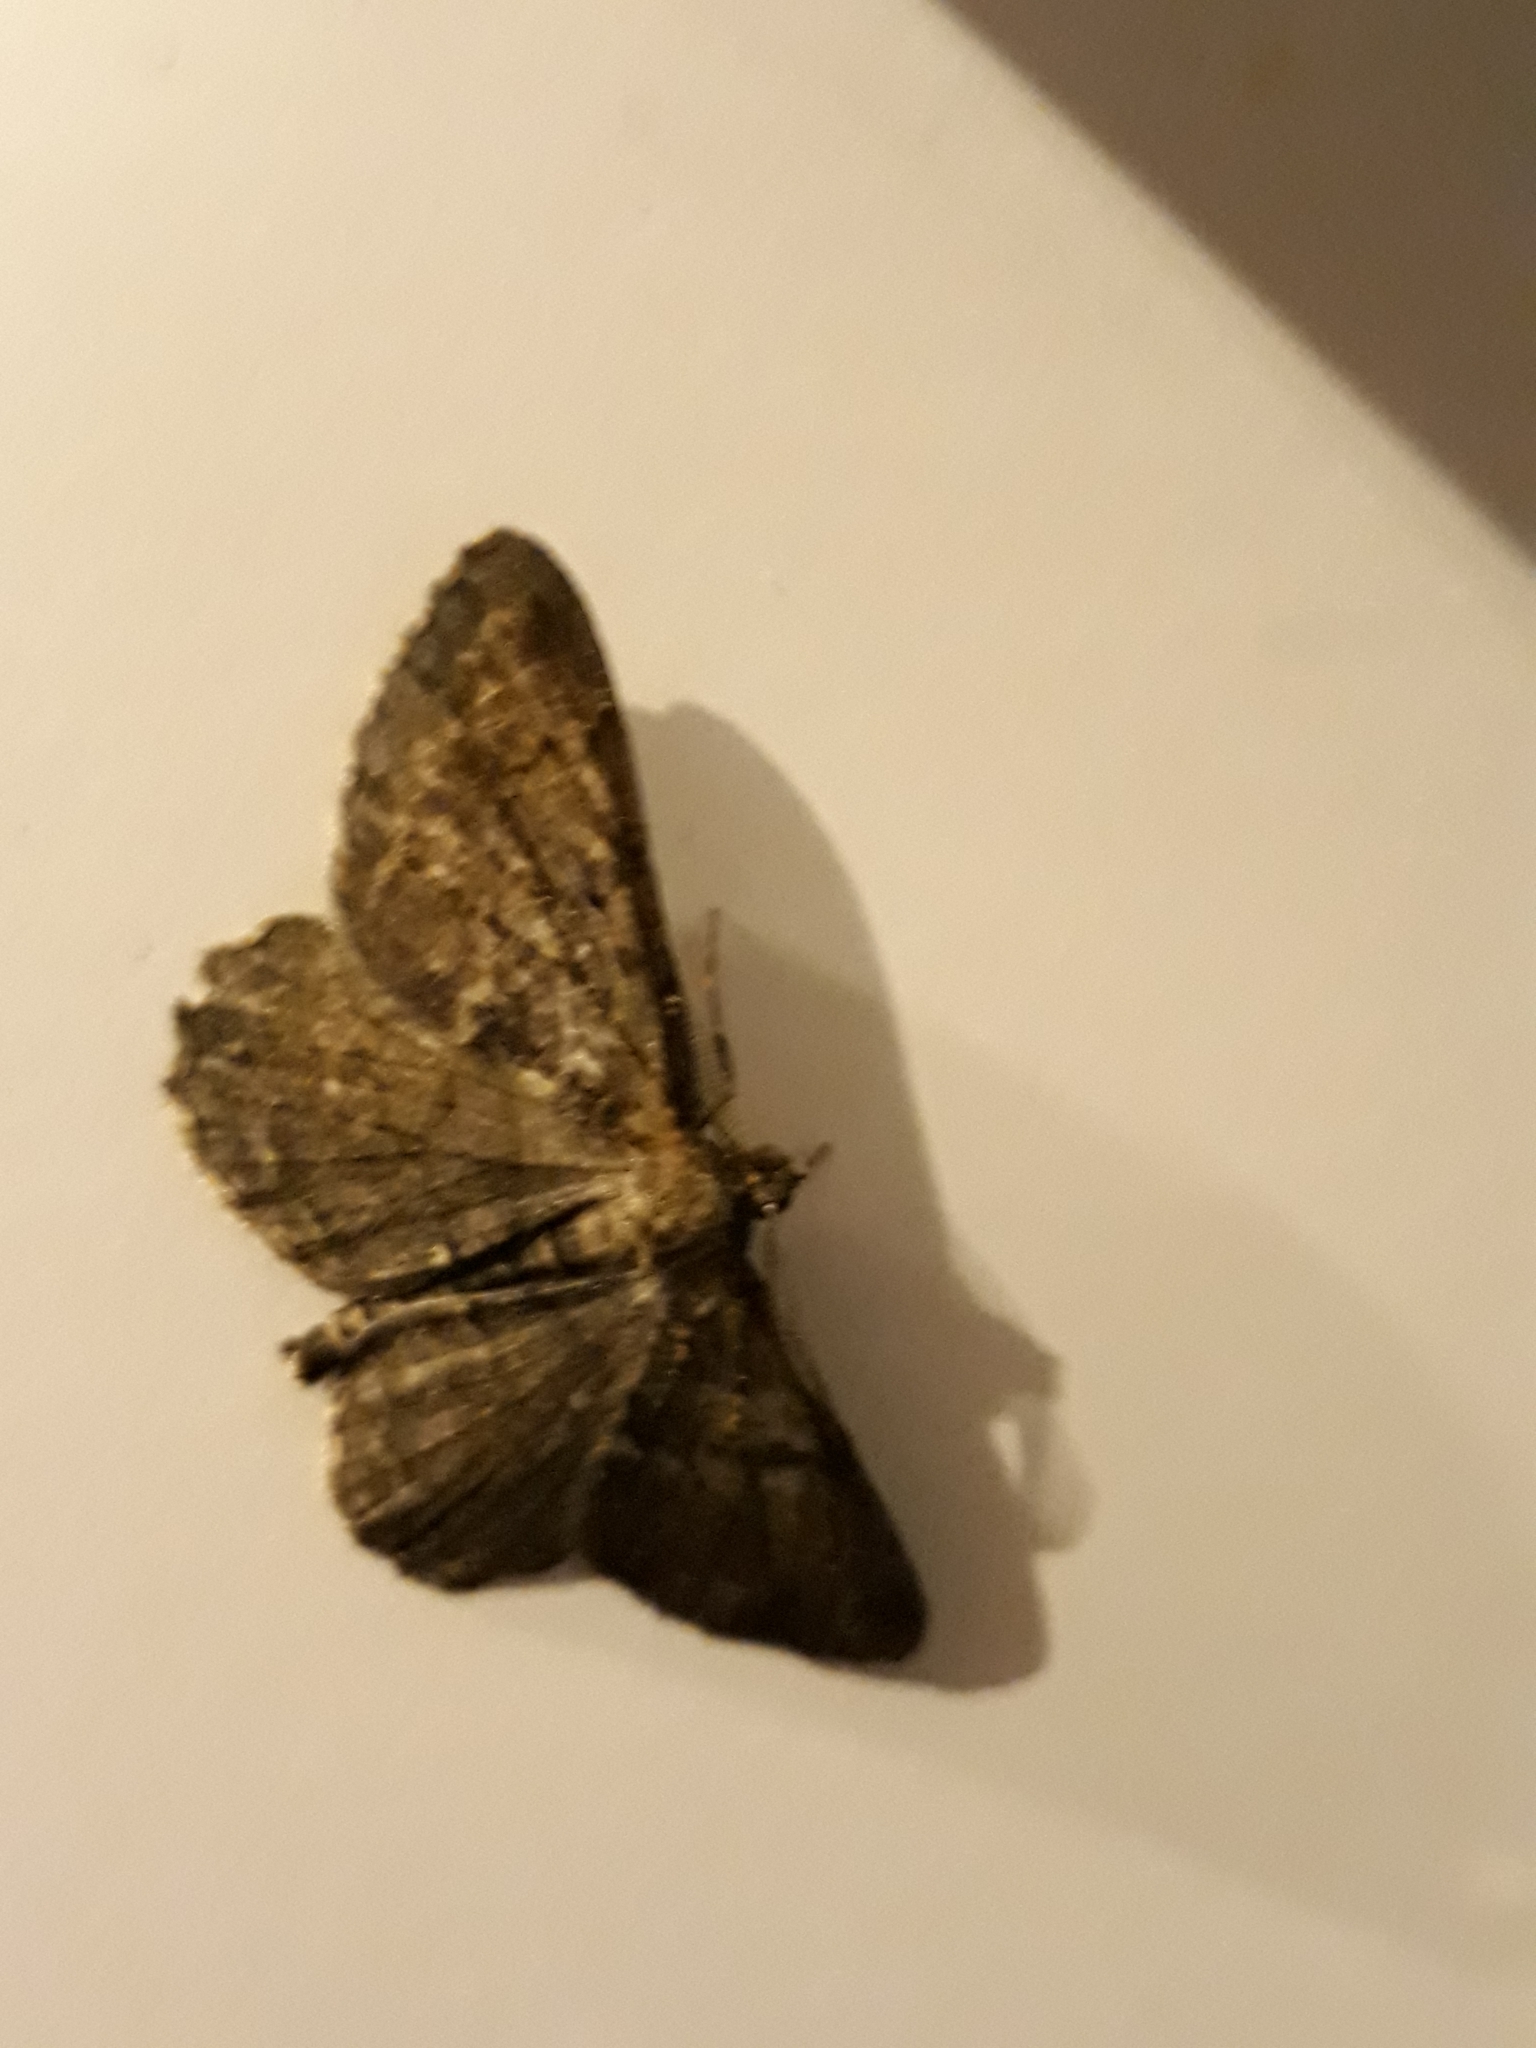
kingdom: Animalia
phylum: Arthropoda
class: Insecta
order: Lepidoptera
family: Geometridae
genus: Peribatodes
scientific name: Peribatodes rhomboidaria
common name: Willow beauty
